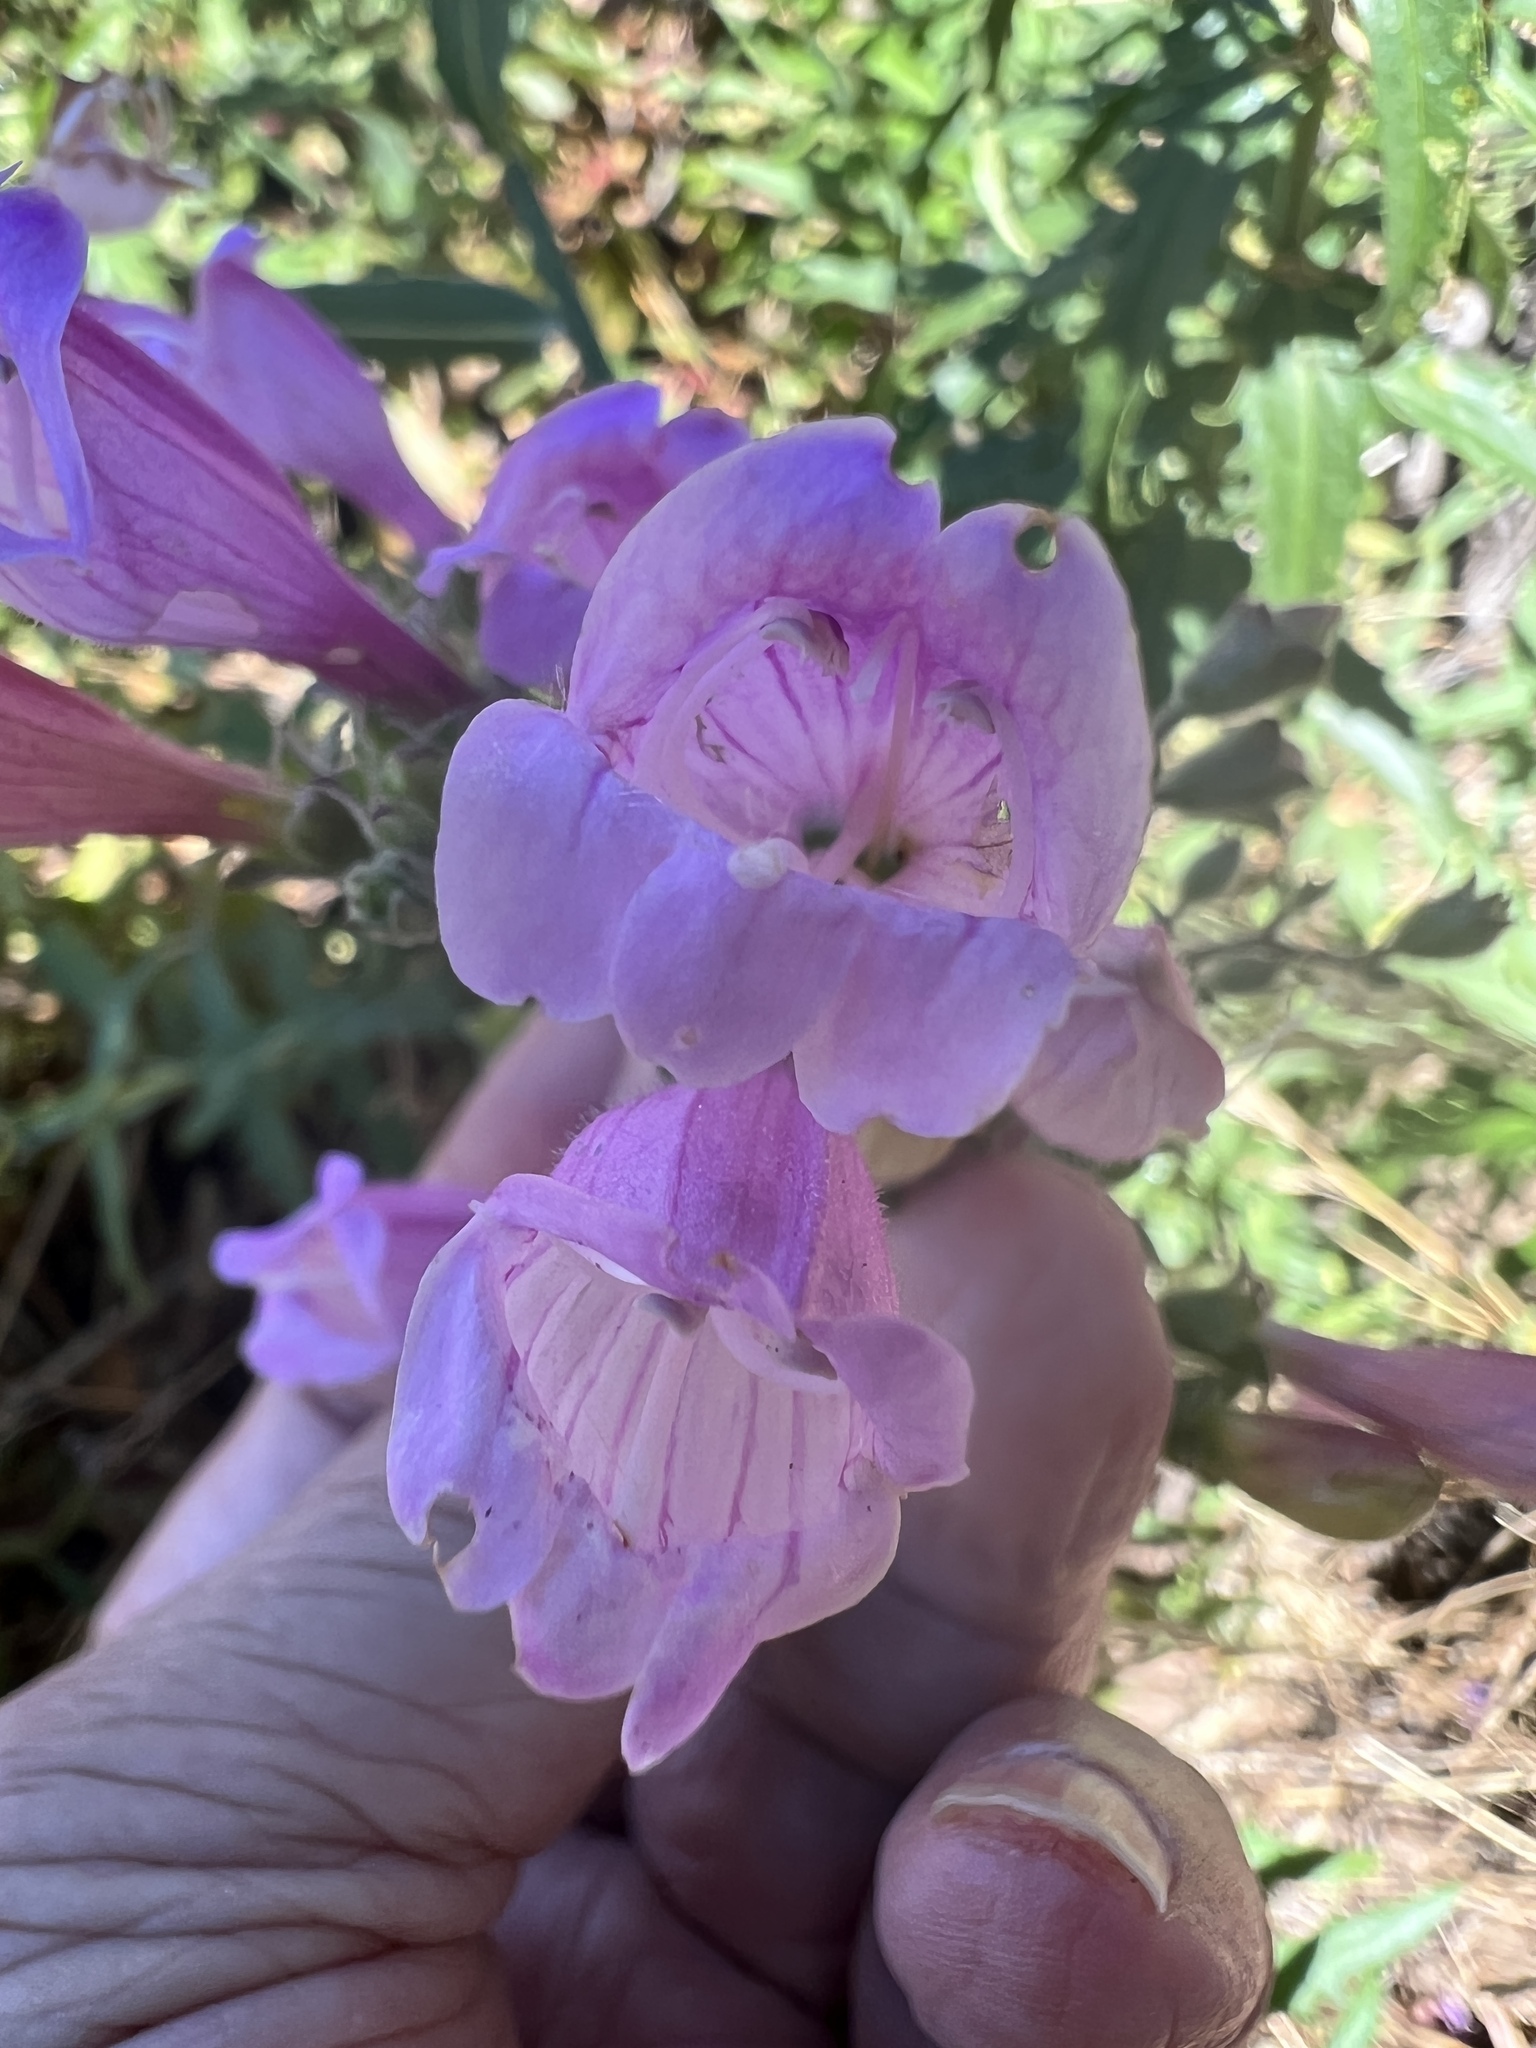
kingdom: Plantae
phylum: Tracheophyta
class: Magnoliopsida
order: Lamiales
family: Plantaginaceae
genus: Penstemon
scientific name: Penstemon richardsonii
